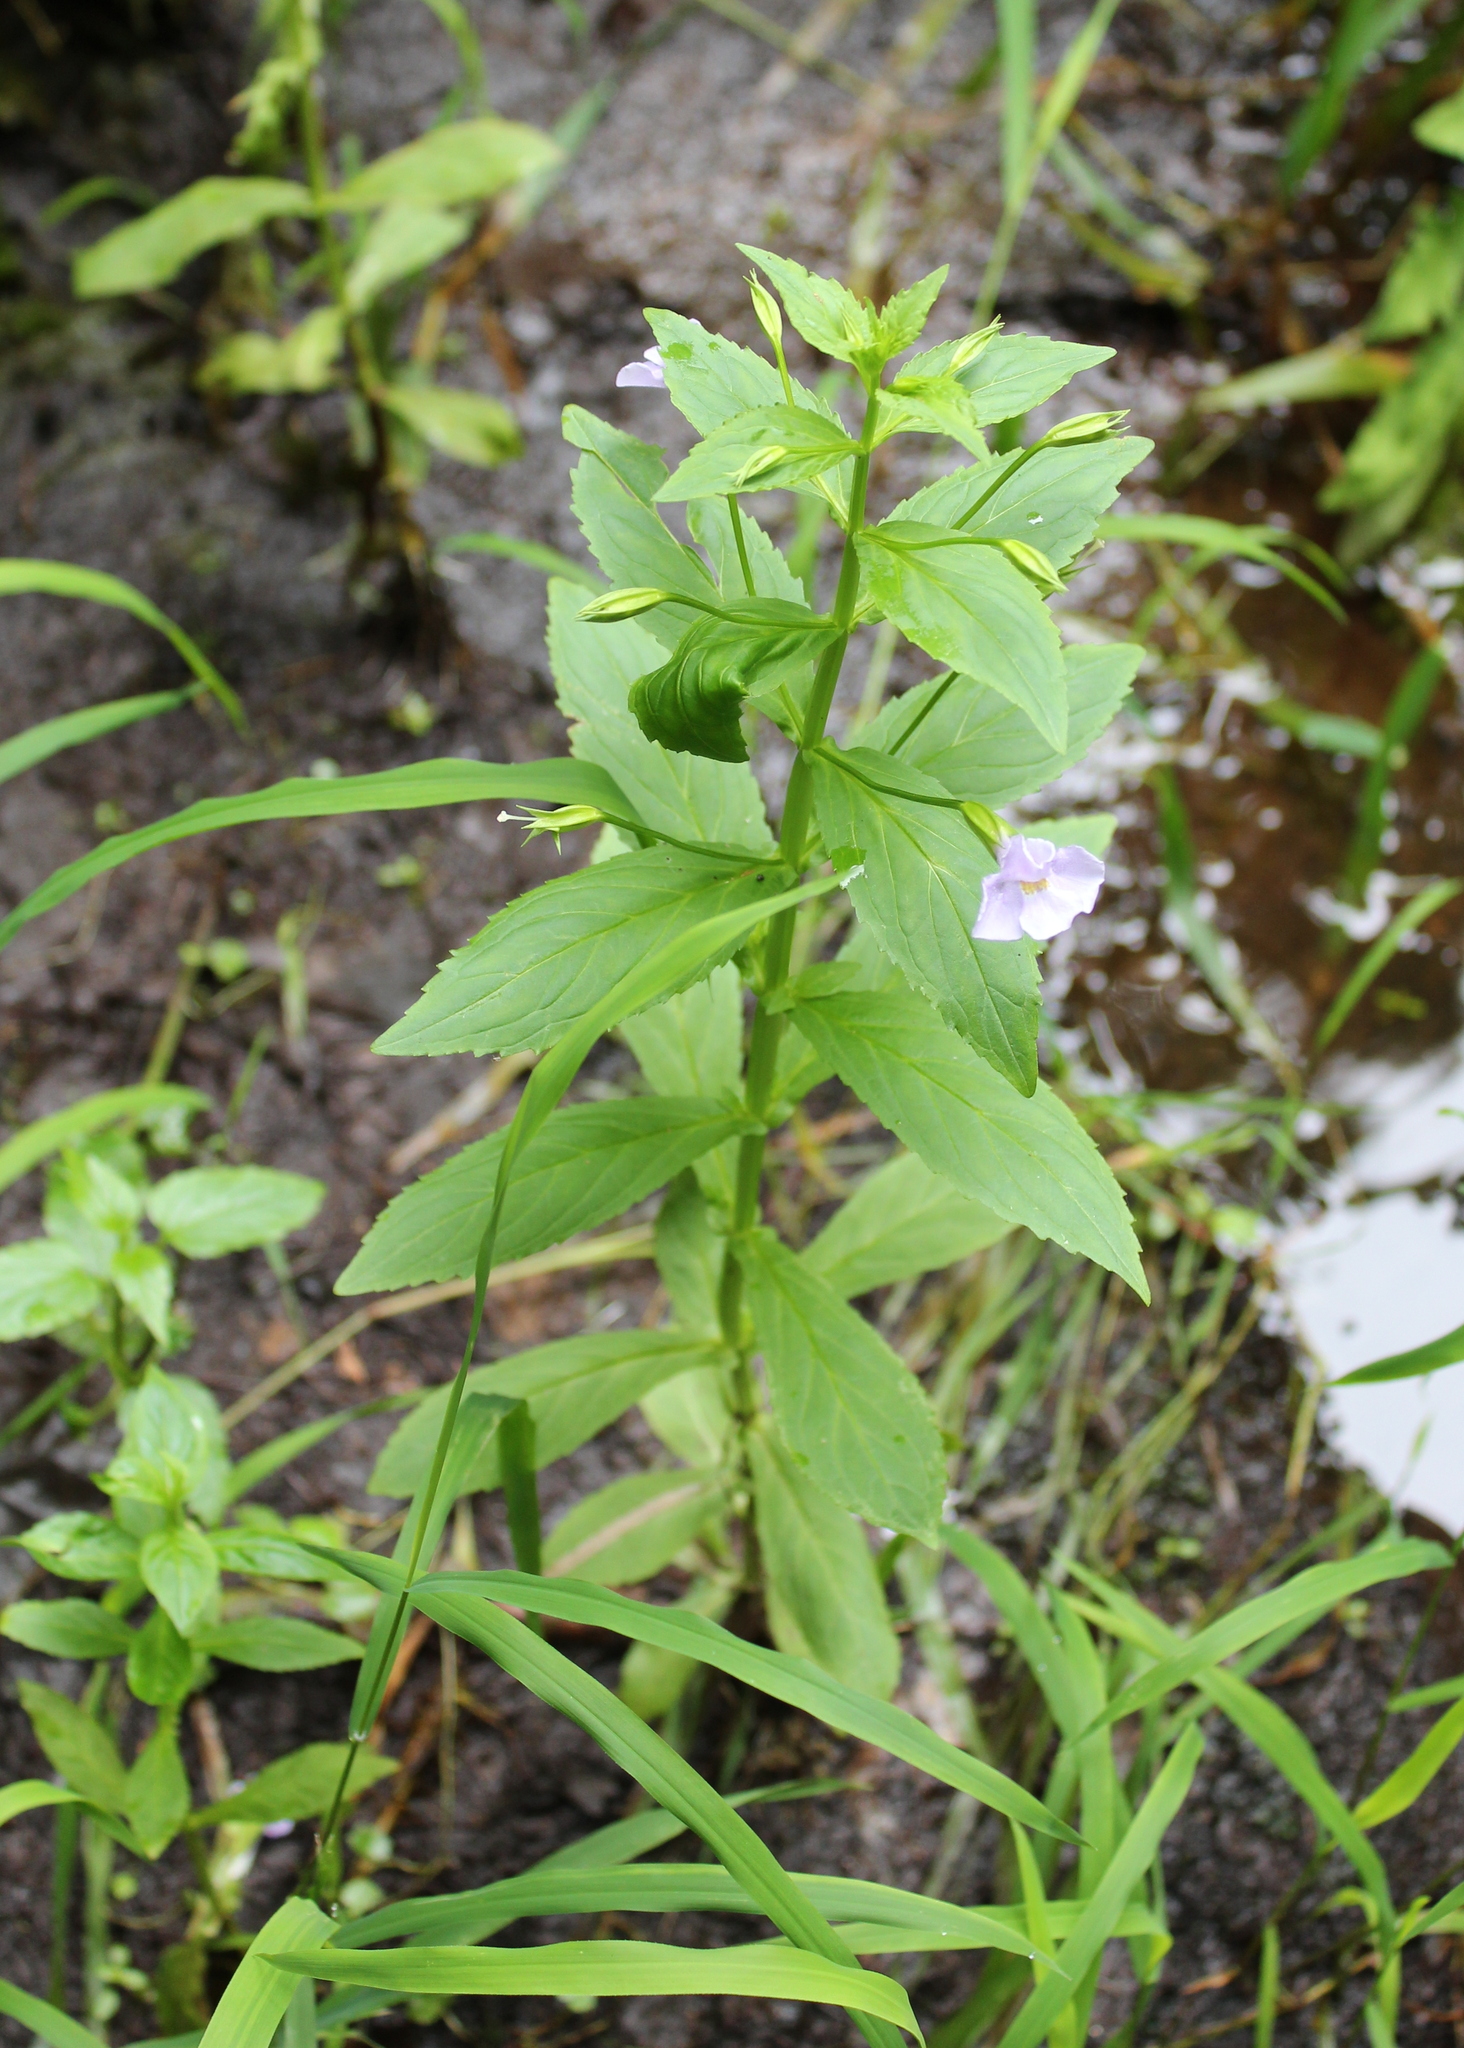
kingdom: Plantae
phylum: Tracheophyta
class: Magnoliopsida
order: Lamiales
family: Phrymaceae
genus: Mimulus
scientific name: Mimulus ringens
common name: Allegheny monkeyflower
